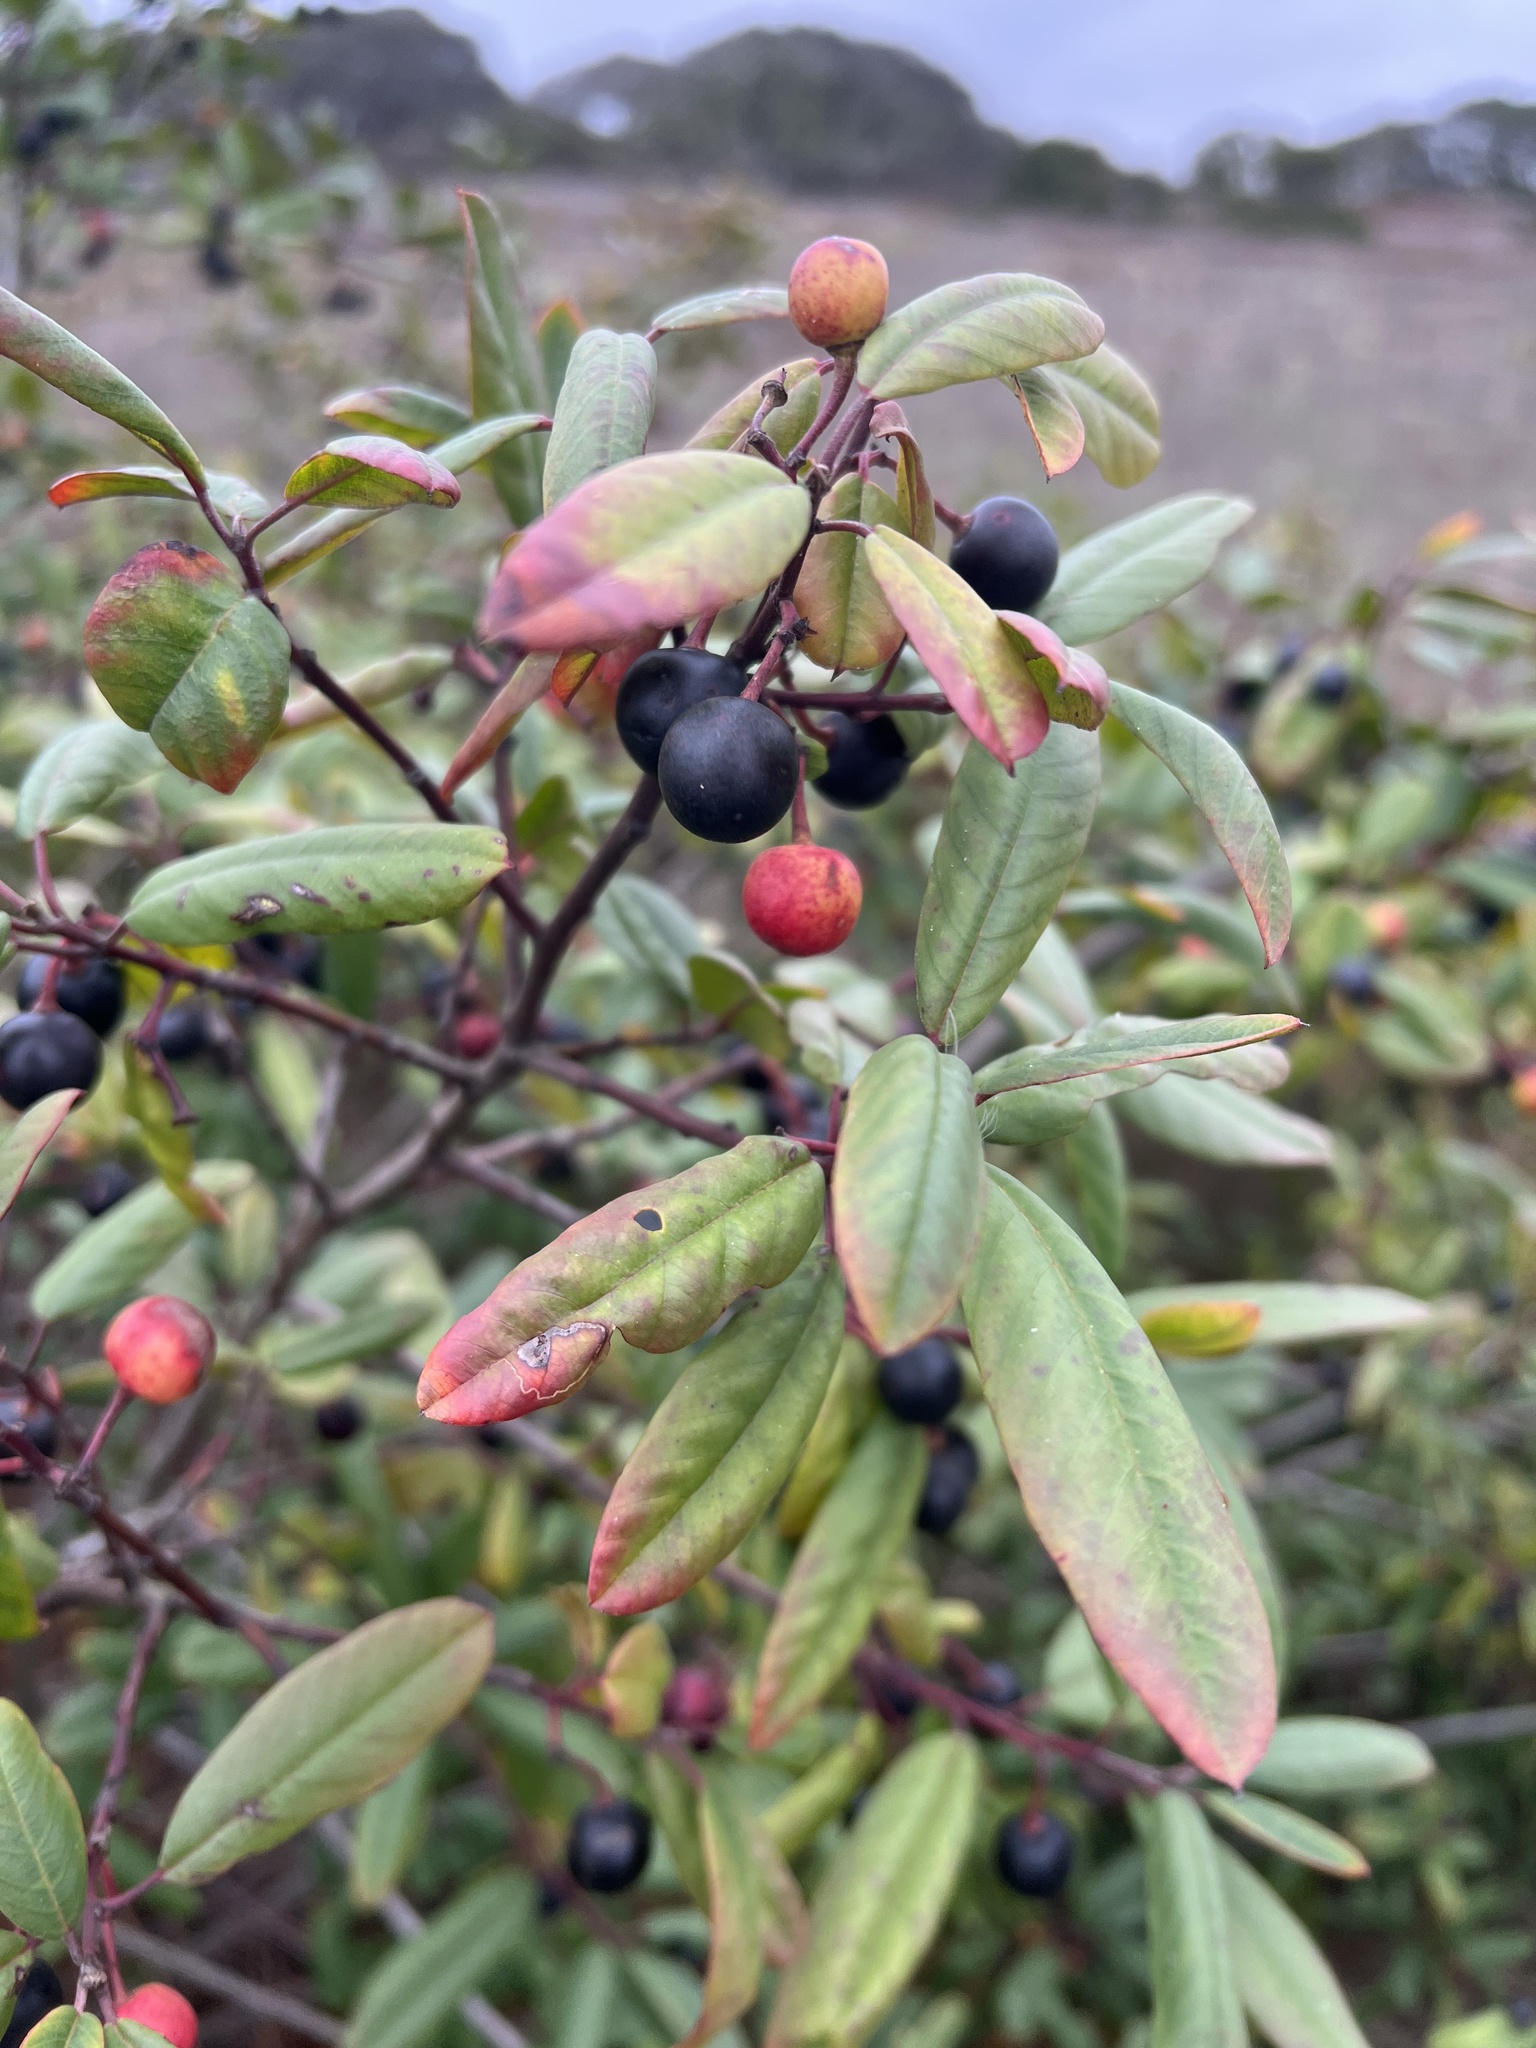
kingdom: Plantae
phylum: Tracheophyta
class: Magnoliopsida
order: Rosales
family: Rhamnaceae
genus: Frangula
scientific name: Frangula californica
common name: California buckthorn
